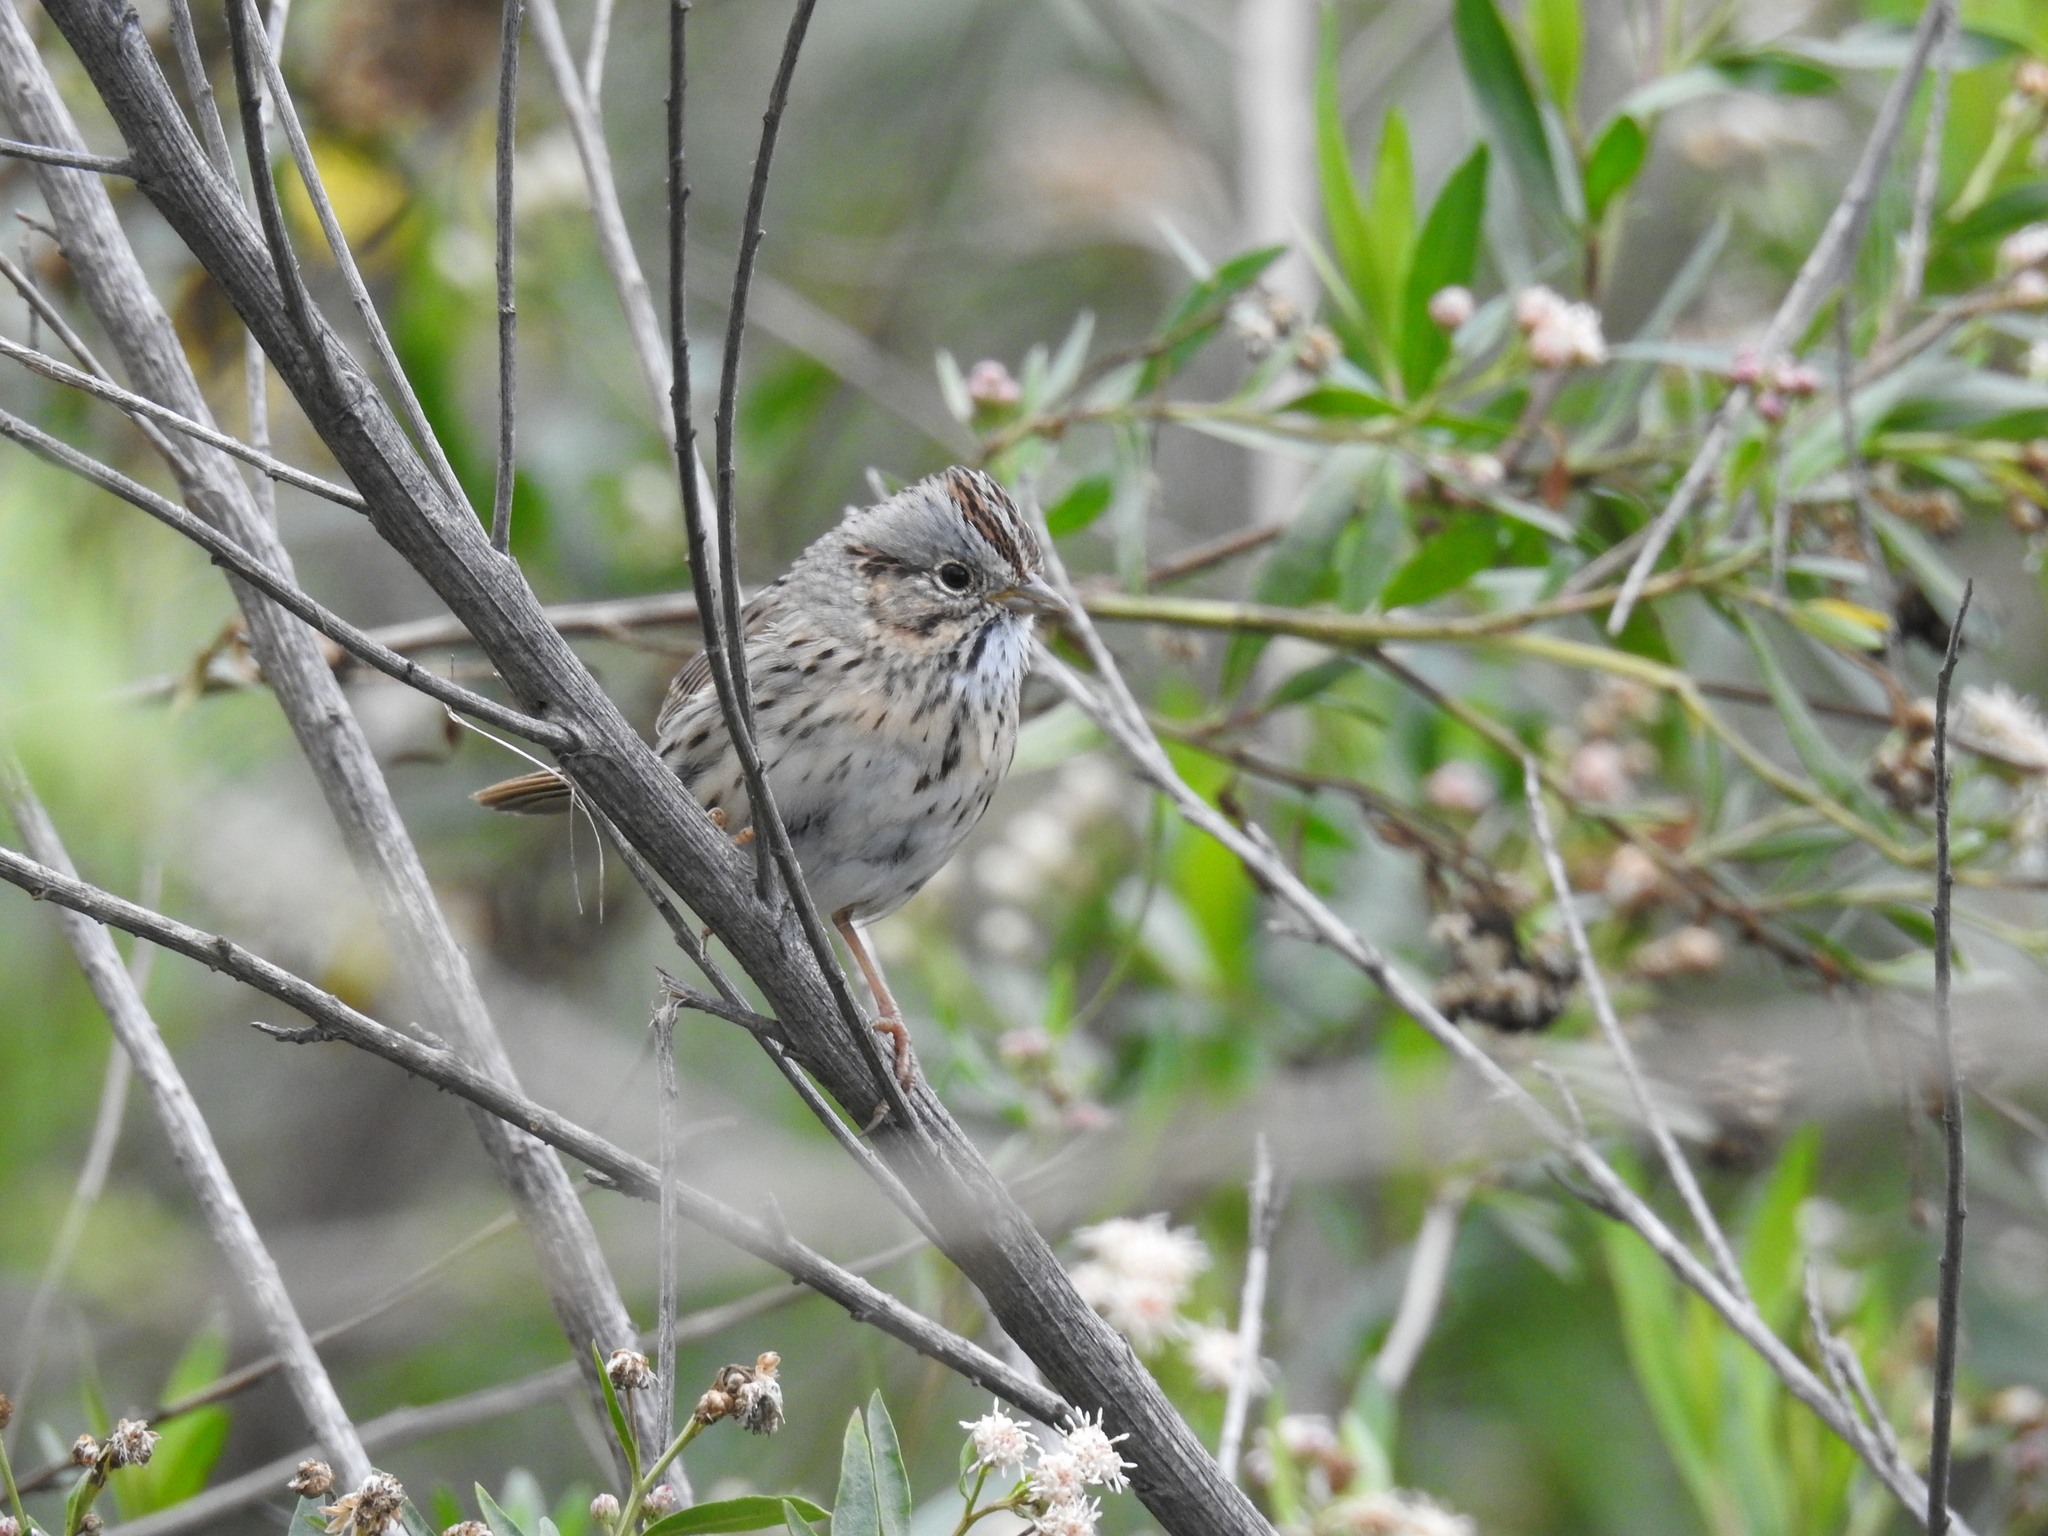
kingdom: Animalia
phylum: Chordata
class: Aves
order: Passeriformes
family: Passerellidae
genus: Melospiza
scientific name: Melospiza lincolnii
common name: Lincoln's sparrow
